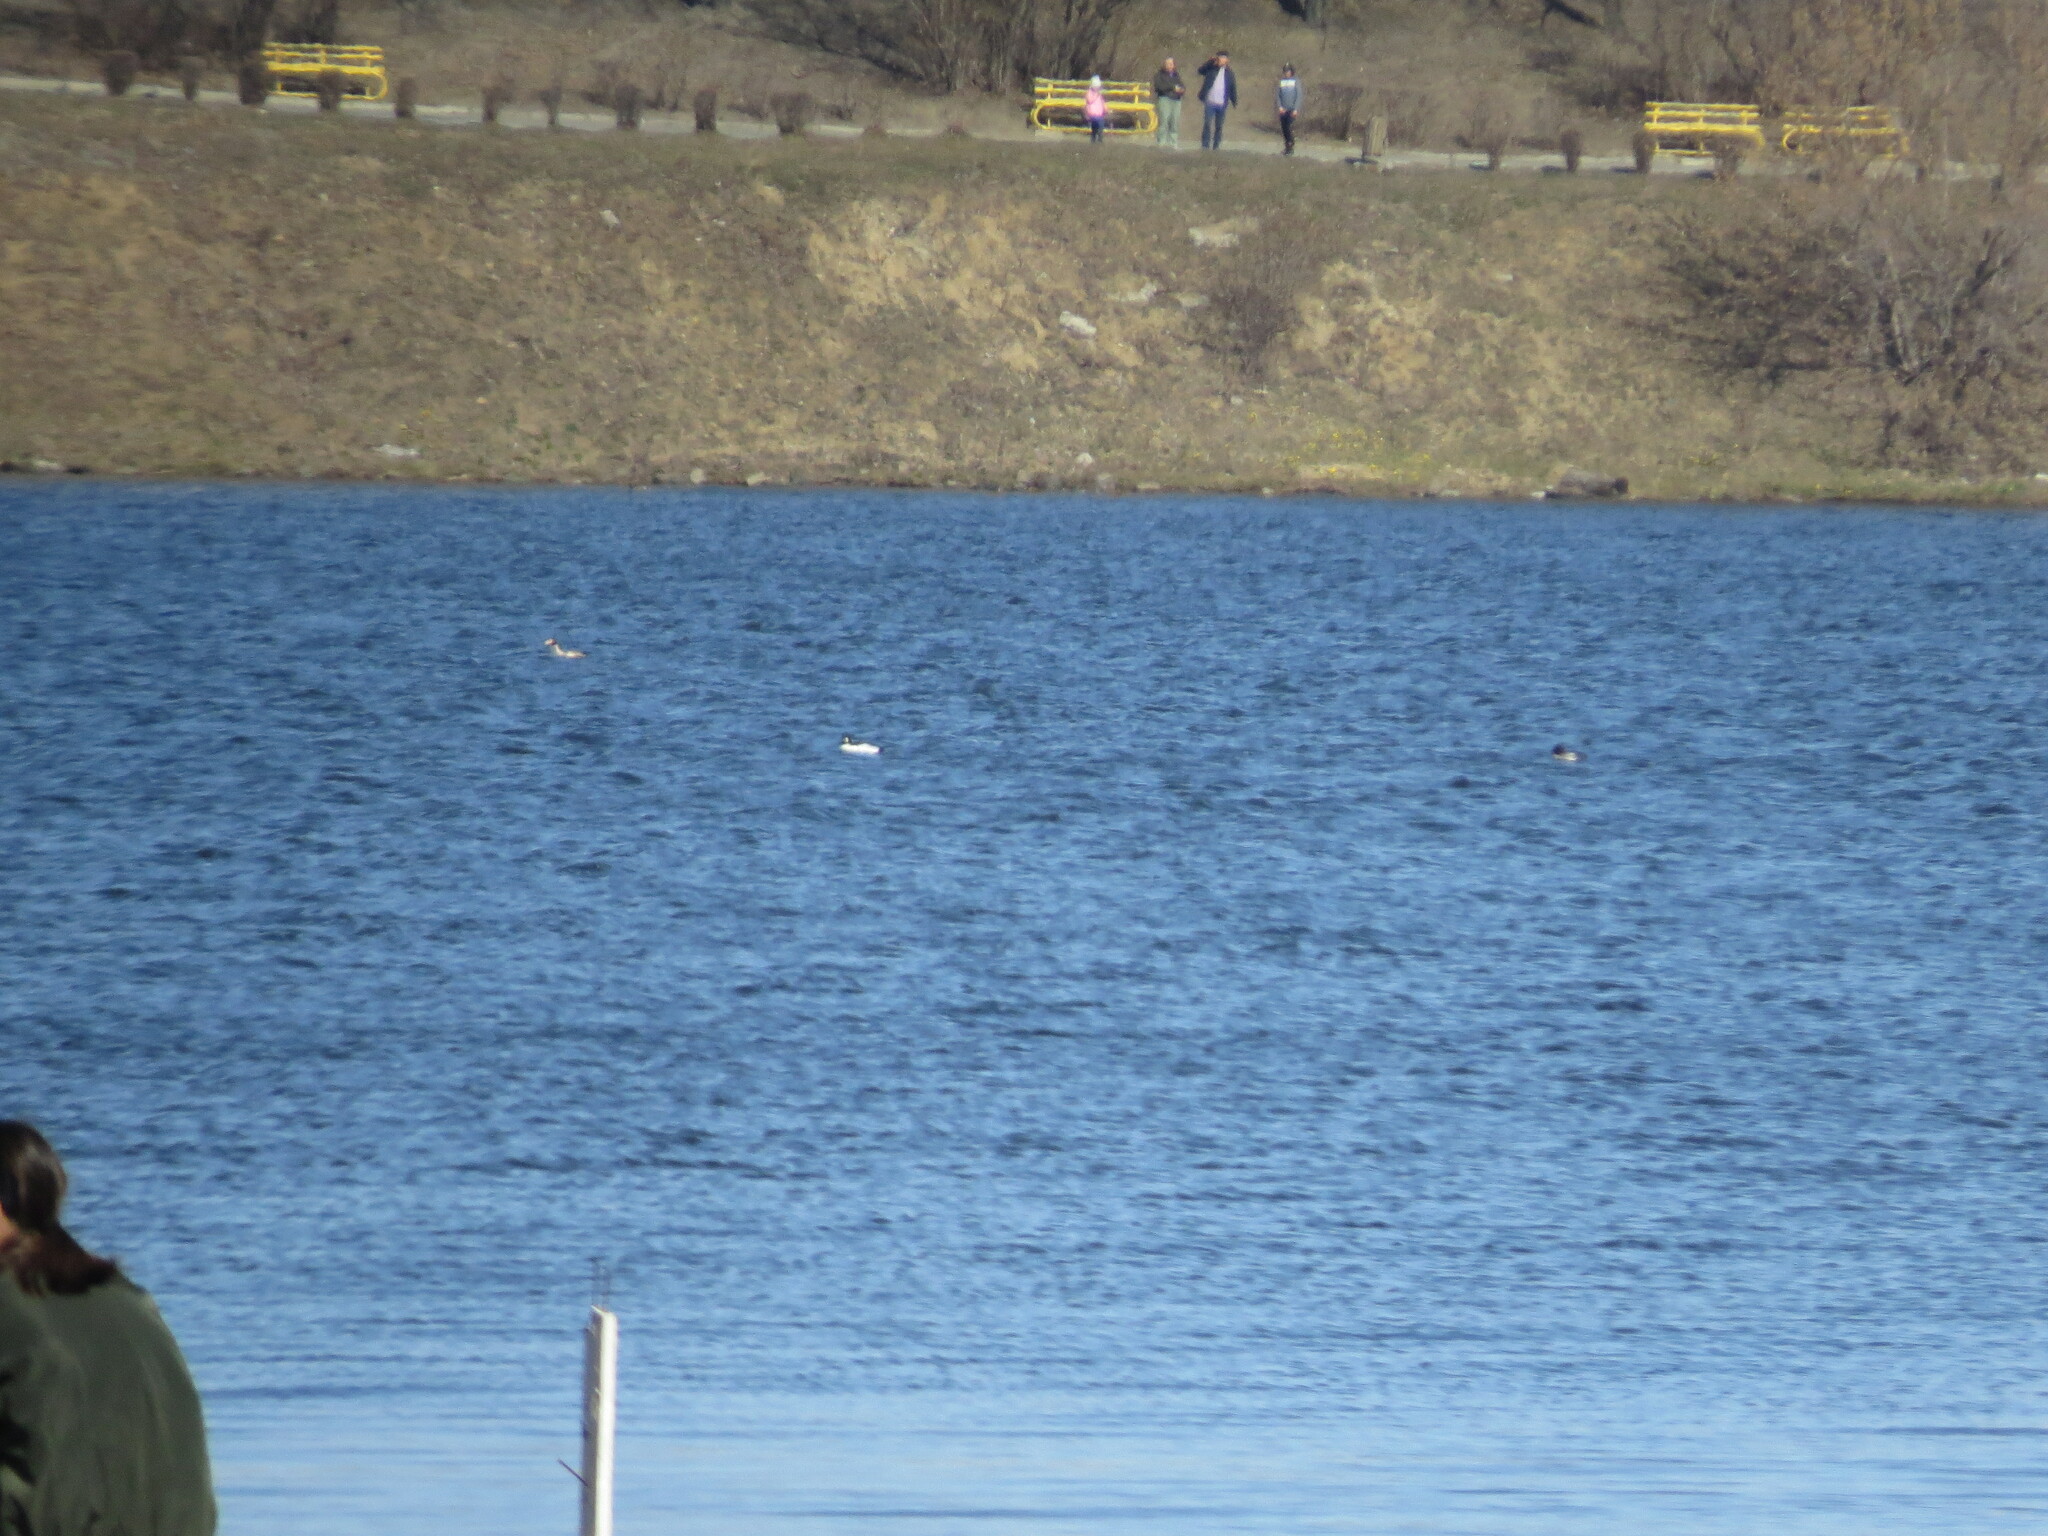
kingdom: Animalia
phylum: Chordata
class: Aves
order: Anseriformes
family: Anatidae
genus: Bucephala
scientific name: Bucephala clangula
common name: Common goldeneye
